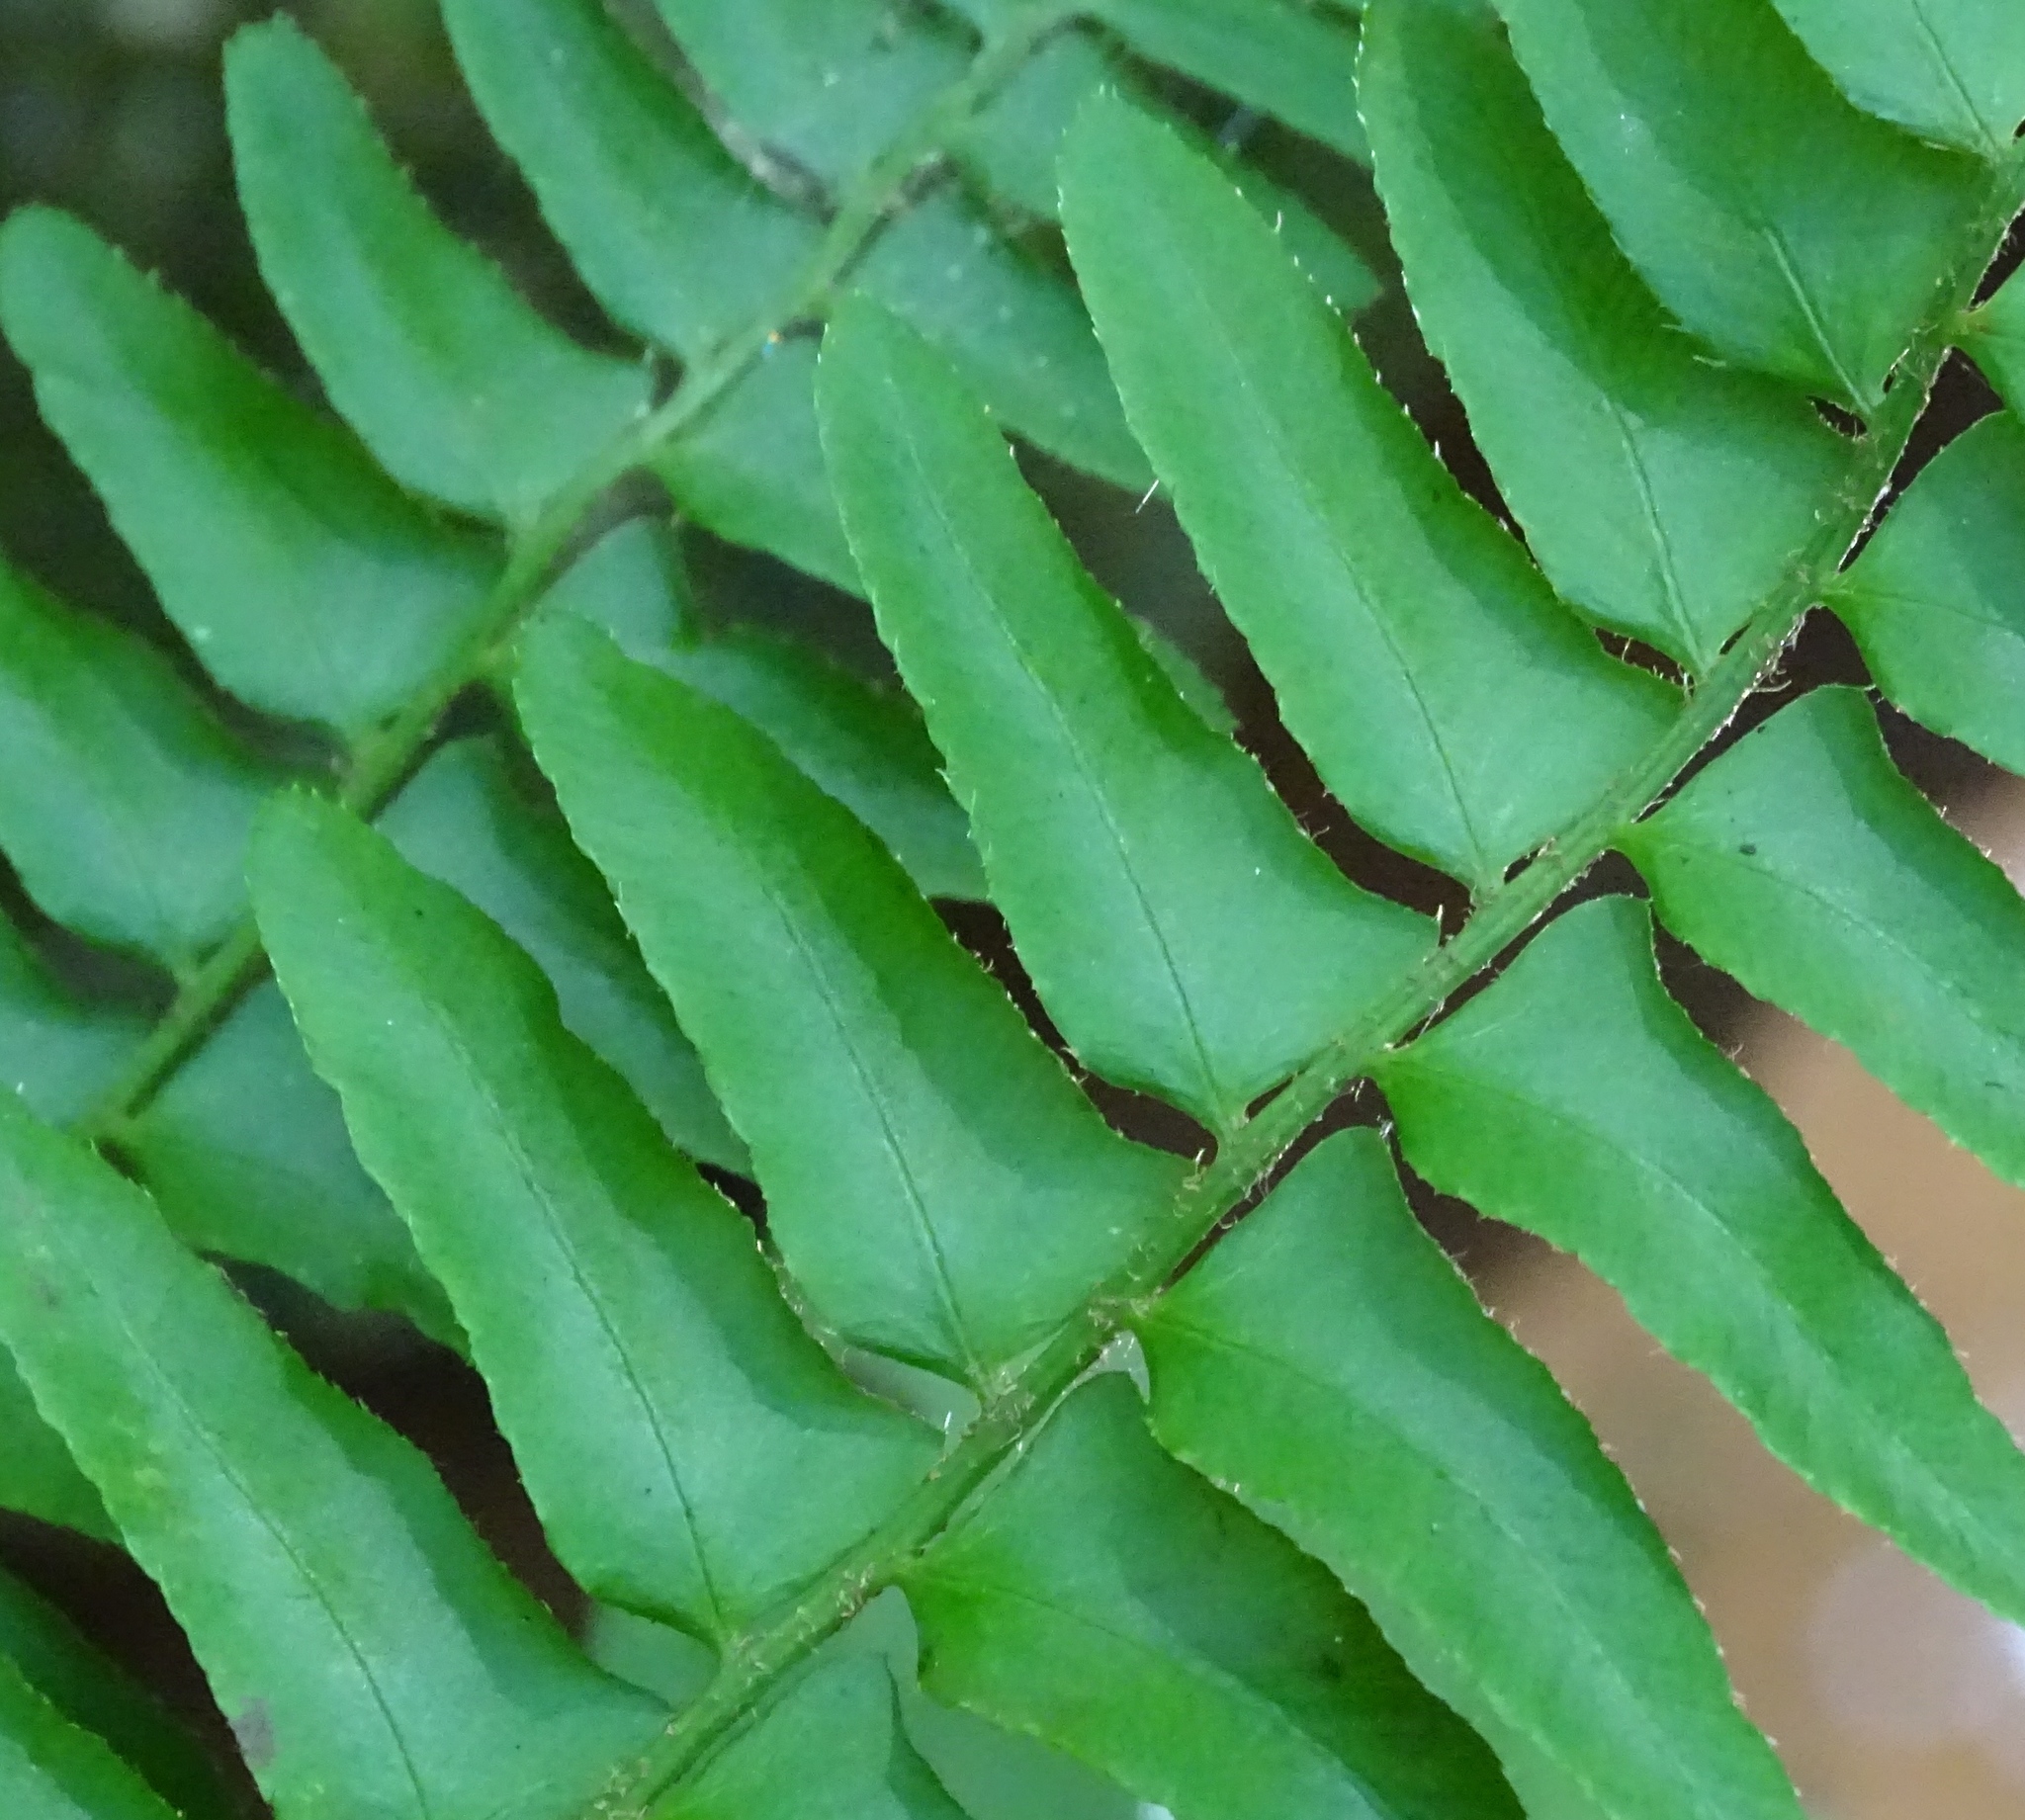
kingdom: Plantae
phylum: Tracheophyta
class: Polypodiopsida
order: Polypodiales
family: Dryopteridaceae
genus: Polystichum
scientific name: Polystichum acrostichoides
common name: Christmas fern
